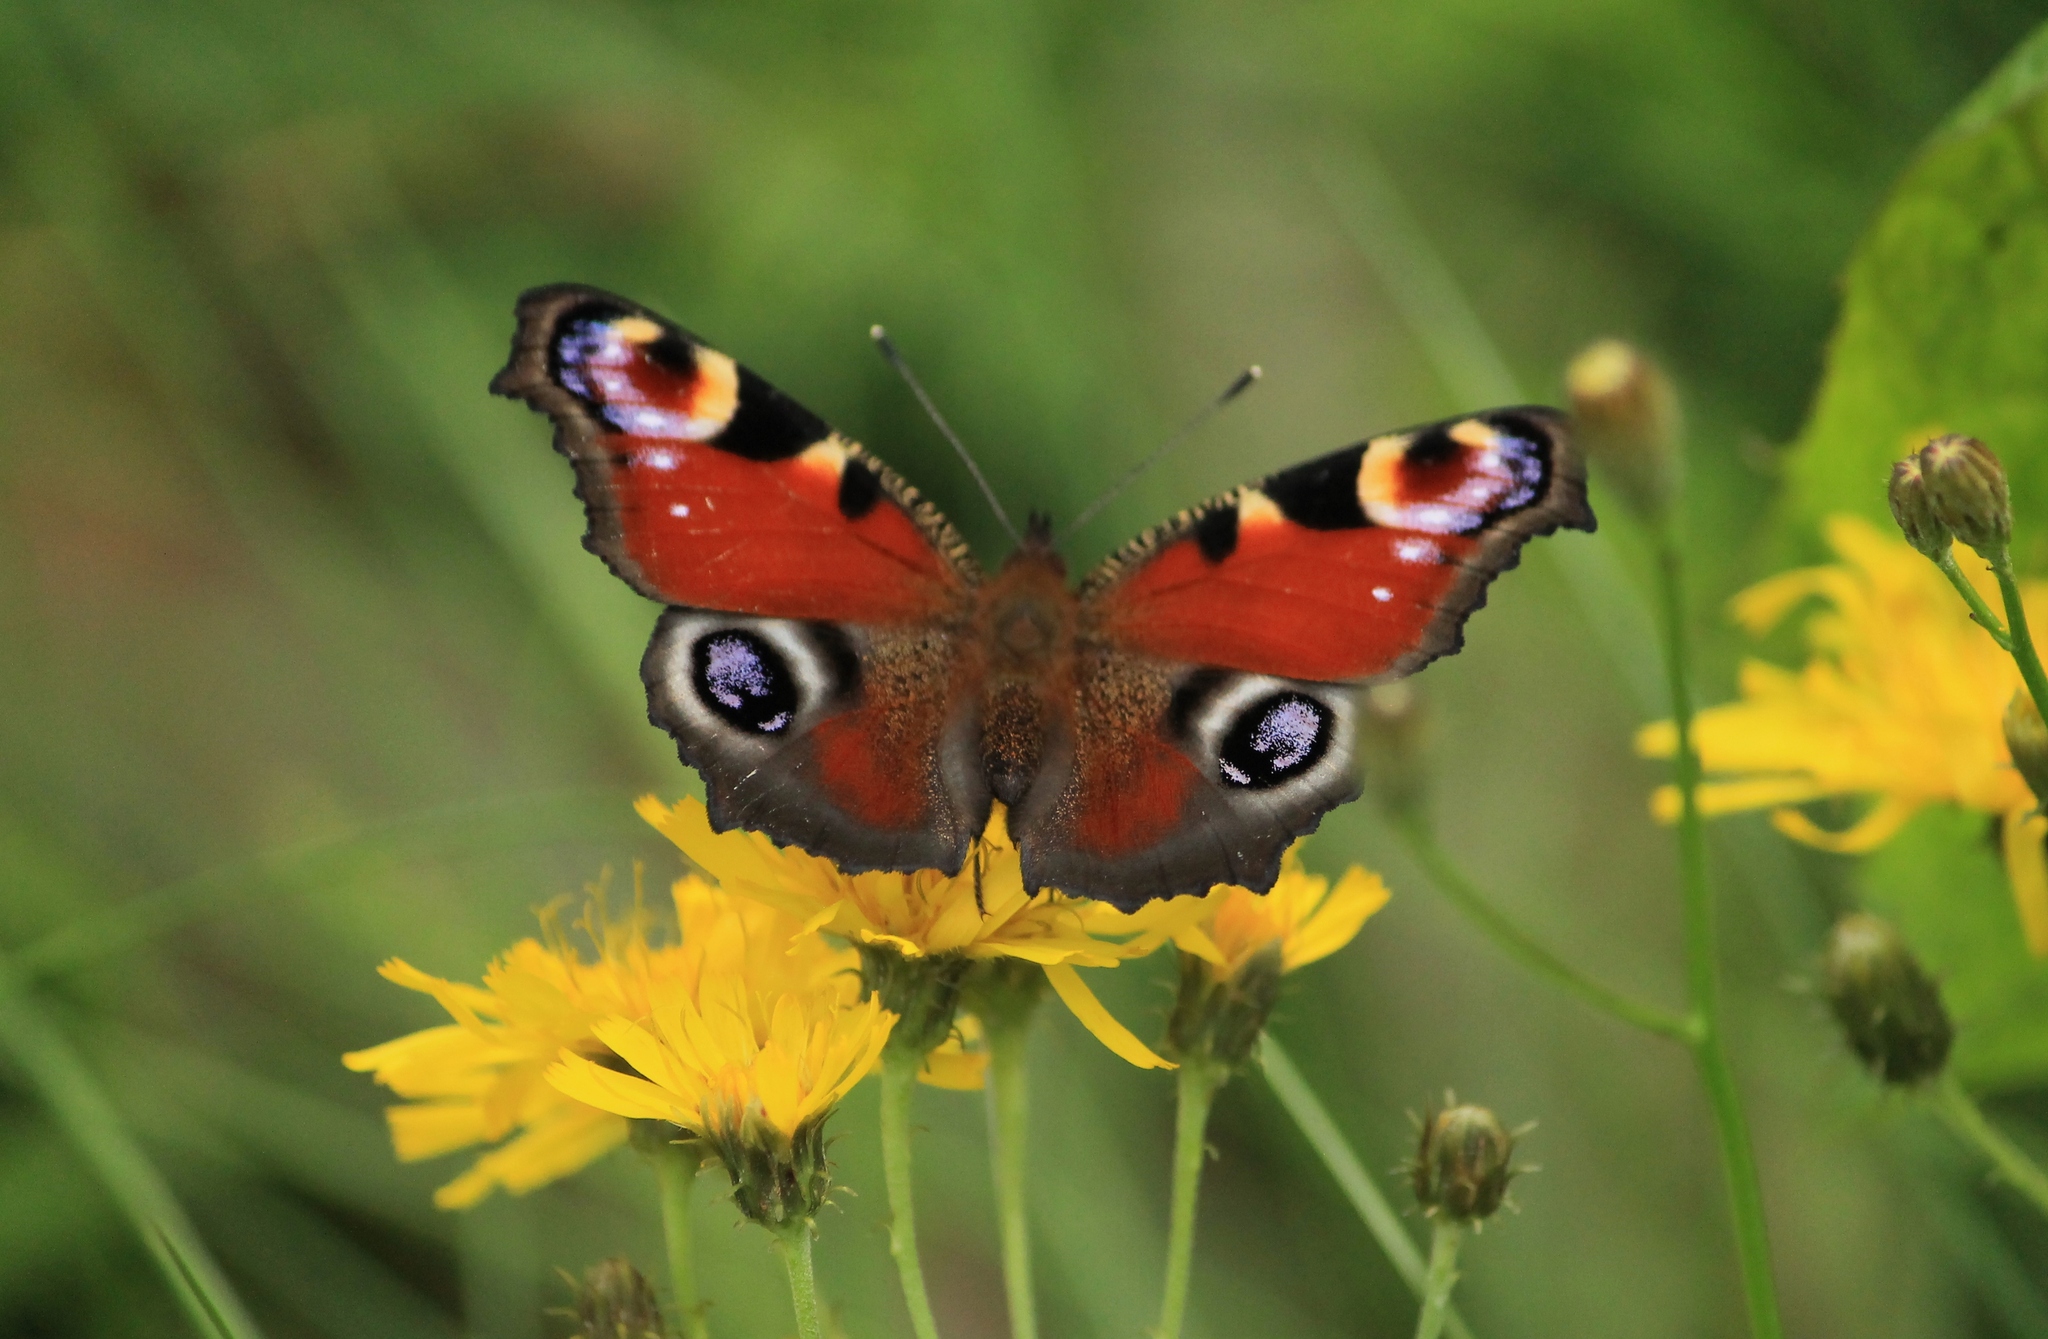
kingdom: Animalia
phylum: Arthropoda
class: Insecta
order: Lepidoptera
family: Nymphalidae
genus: Aglais
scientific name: Aglais io
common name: Peacock
